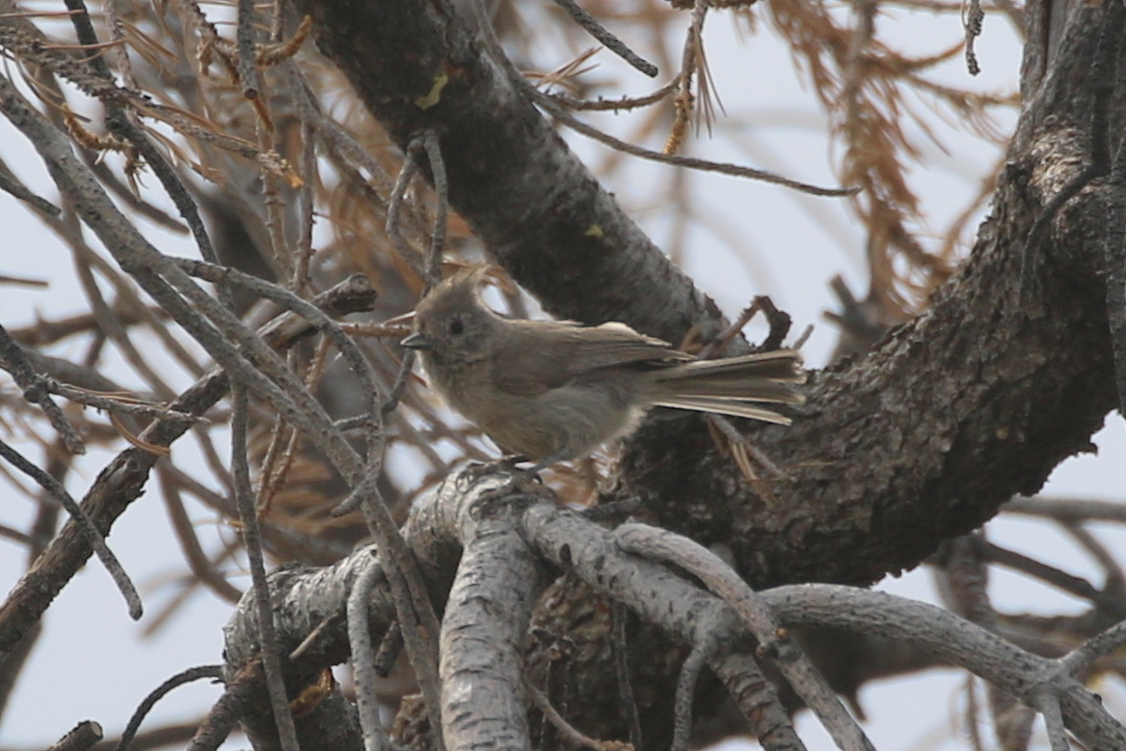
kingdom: Animalia
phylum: Chordata
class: Aves
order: Passeriformes
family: Paridae
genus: Baeolophus
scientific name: Baeolophus ridgwayi
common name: Juniper titmouse
